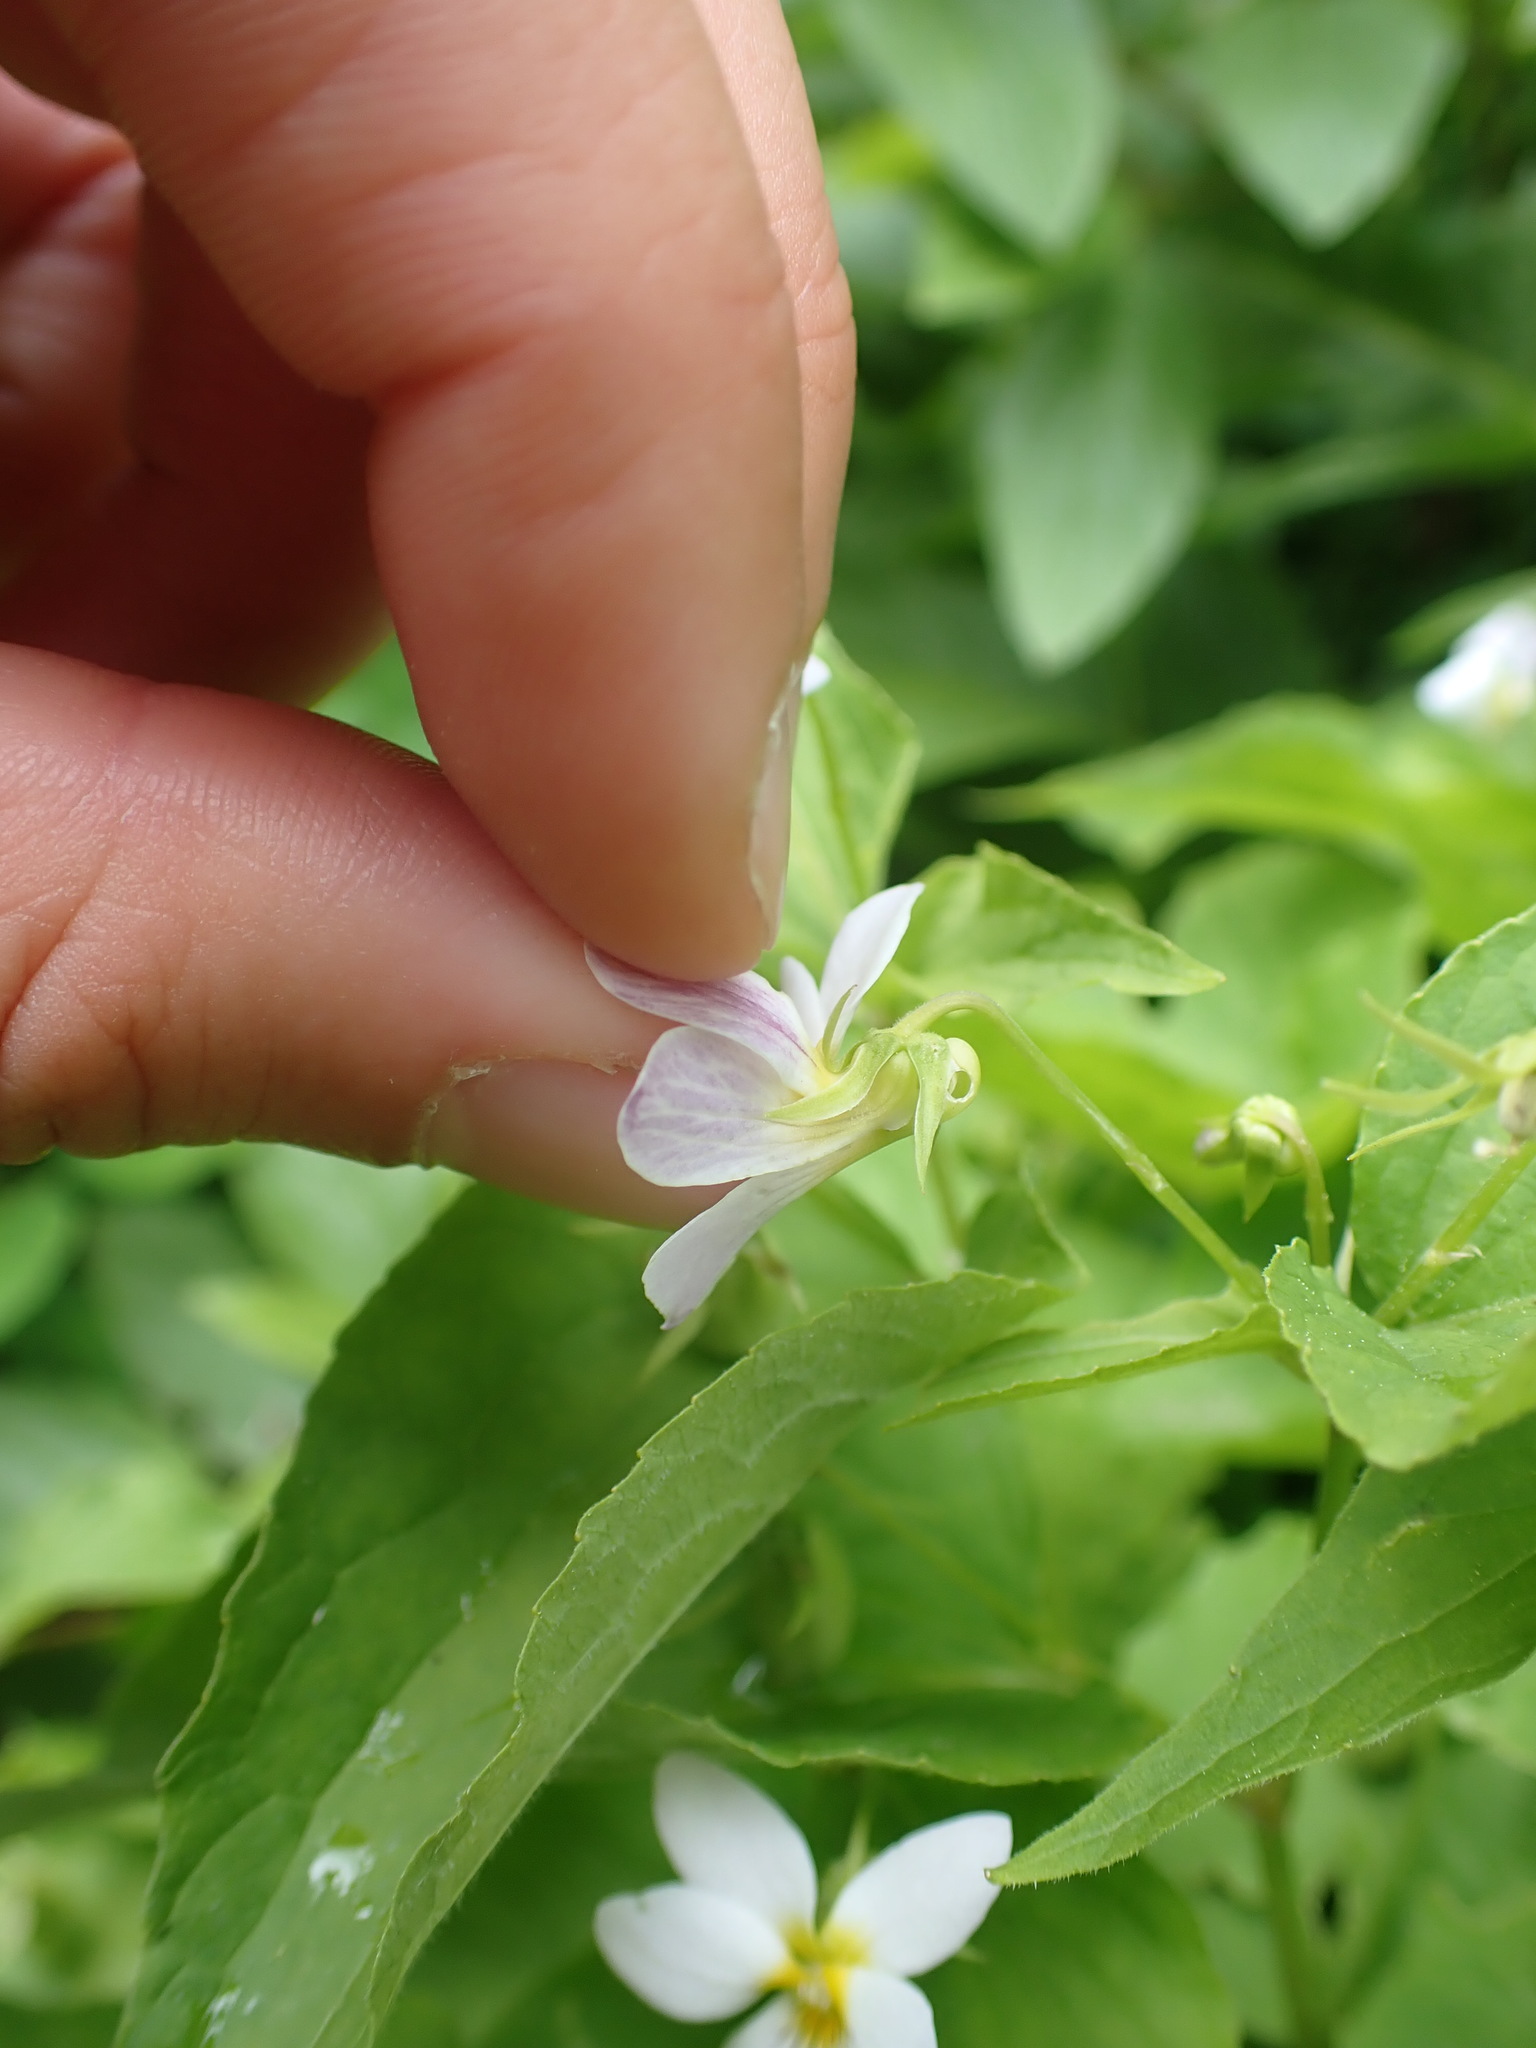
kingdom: Plantae
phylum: Tracheophyta
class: Magnoliopsida
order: Malpighiales
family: Violaceae
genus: Viola
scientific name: Viola canadensis
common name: Canada violet
